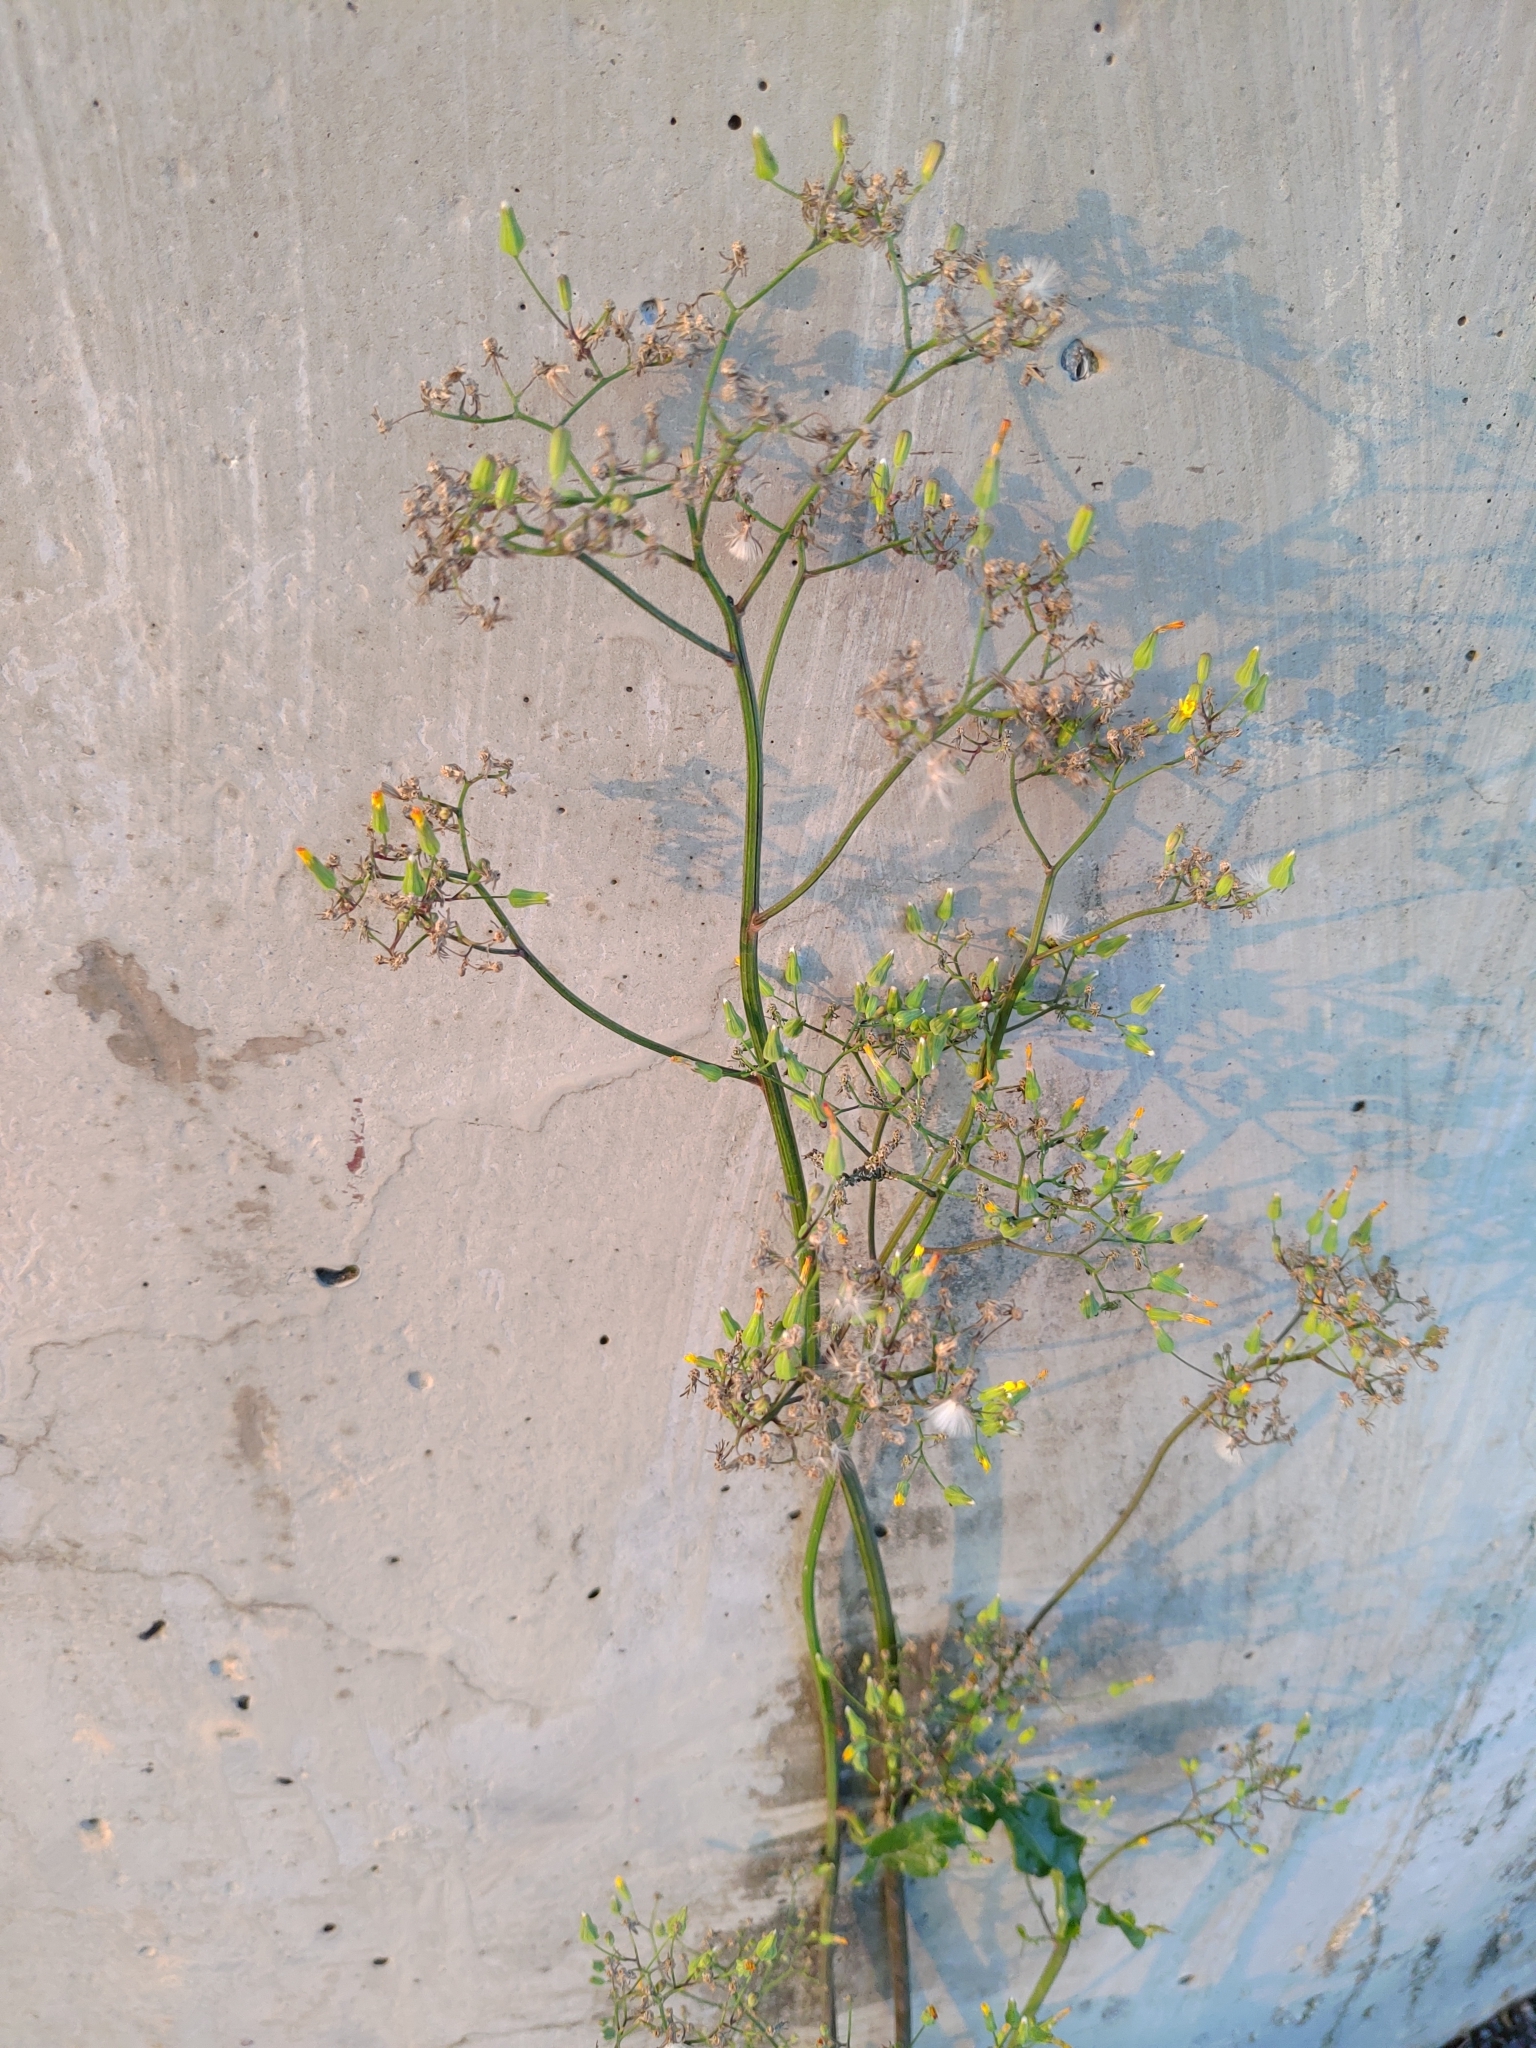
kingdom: Plantae
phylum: Tracheophyta
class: Magnoliopsida
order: Asterales
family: Asteraceae
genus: Youngia
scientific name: Youngia japonica
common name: Oriental false hawksbeard
